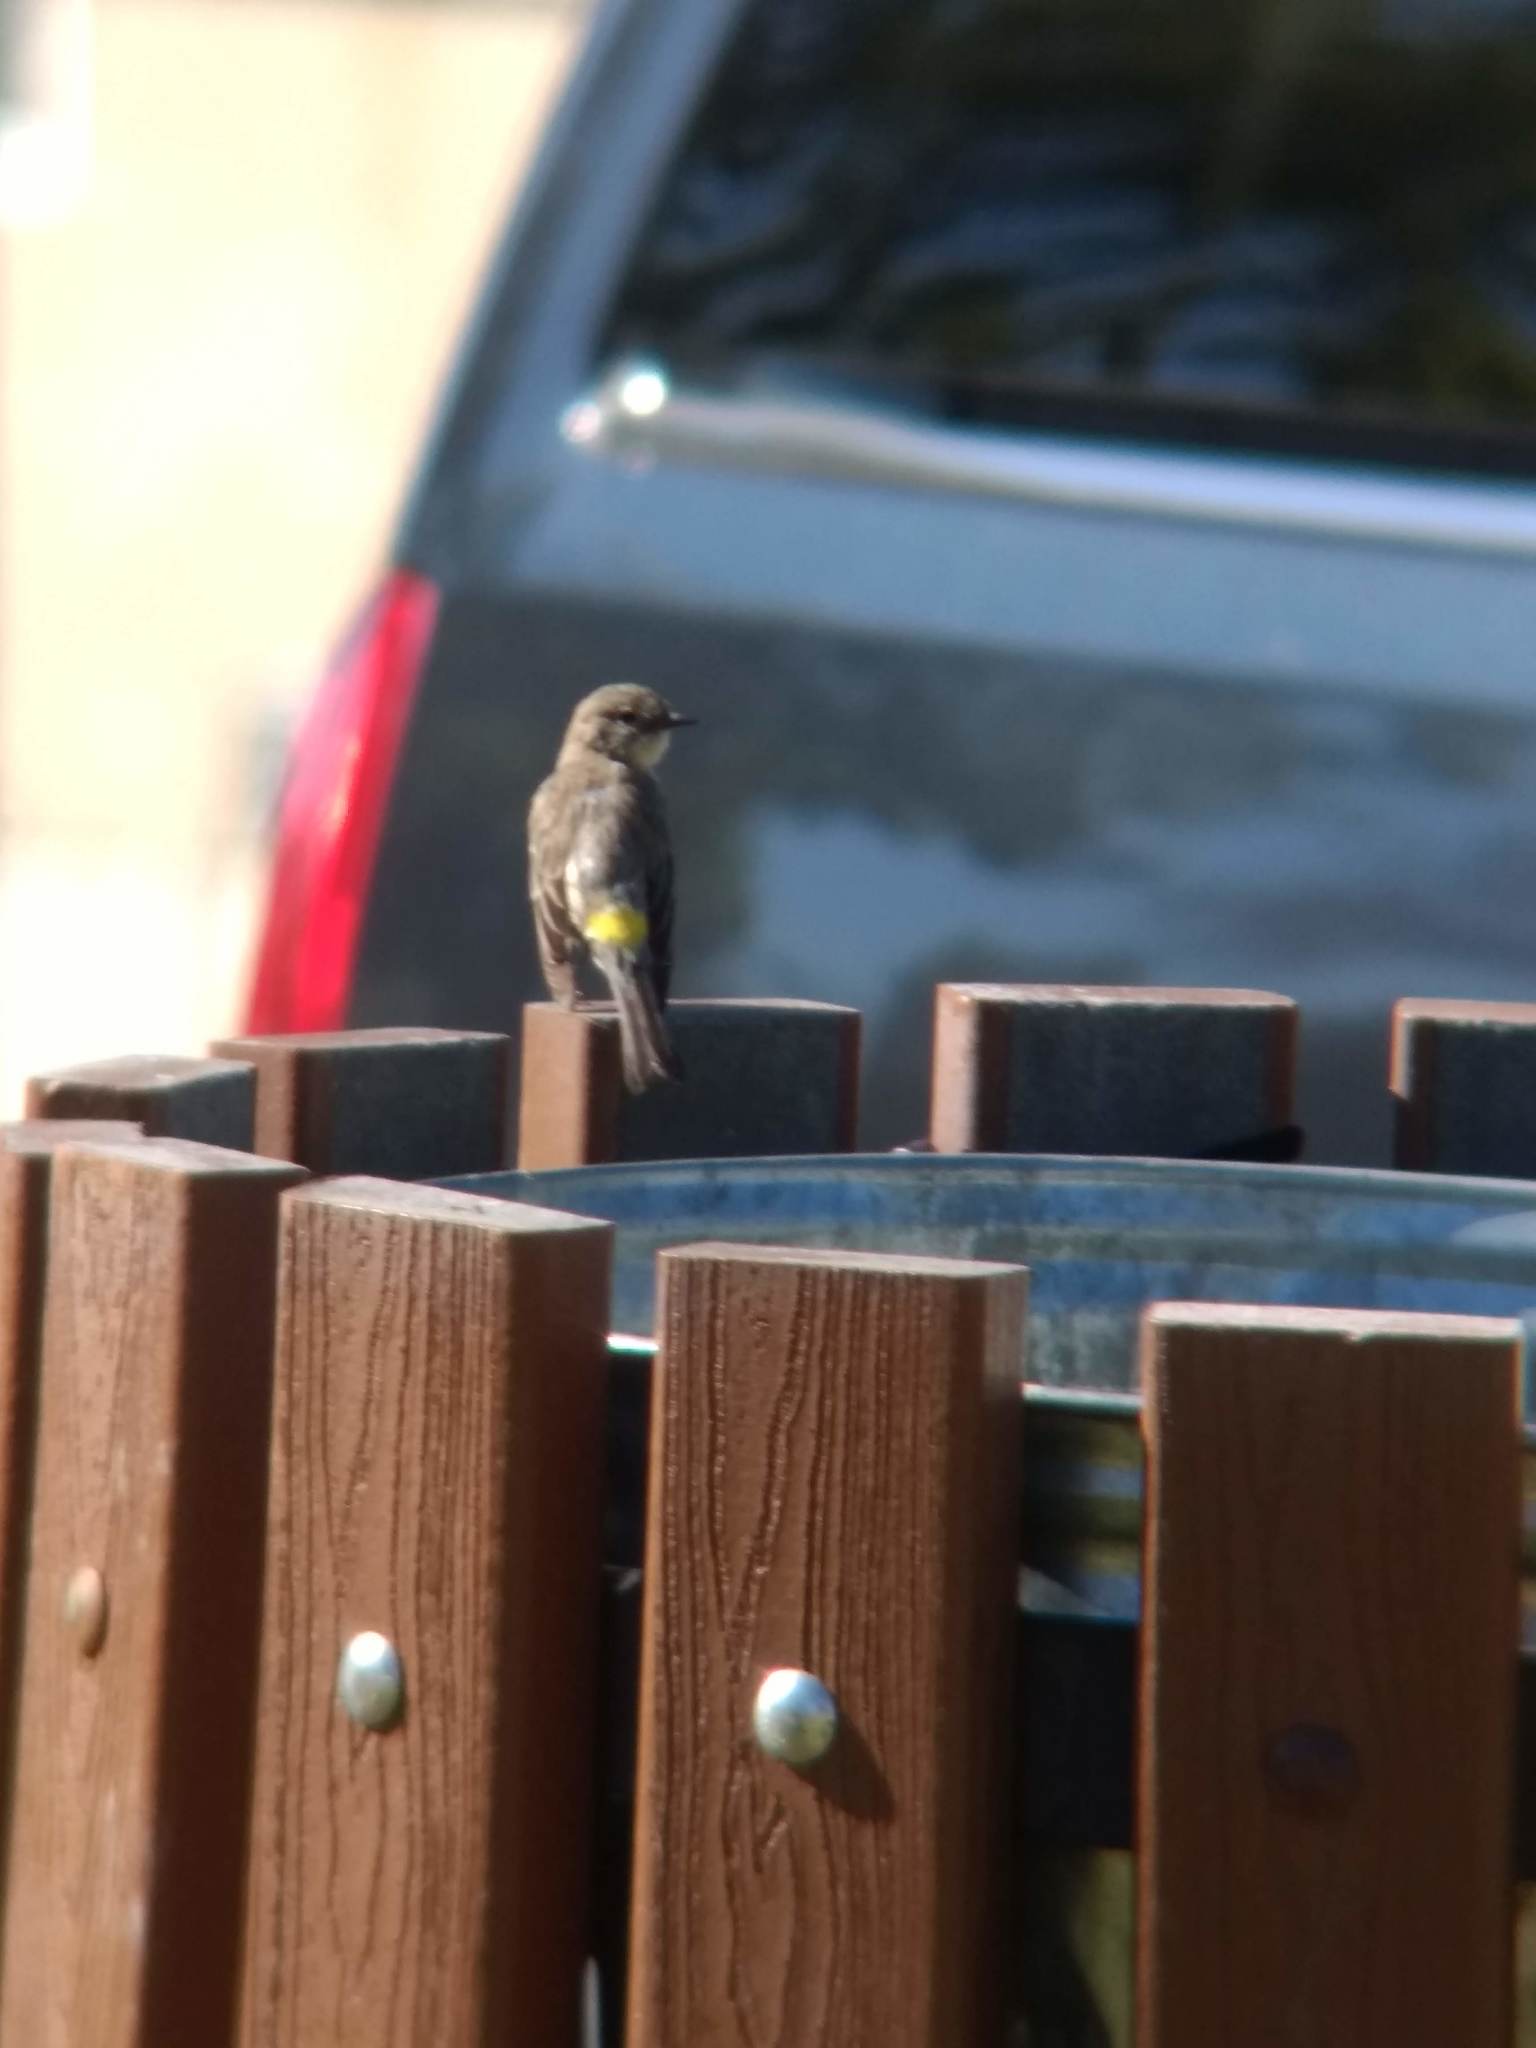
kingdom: Animalia
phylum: Chordata
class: Aves
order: Passeriformes
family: Parulidae
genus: Setophaga
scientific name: Setophaga coronata
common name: Myrtle warbler
